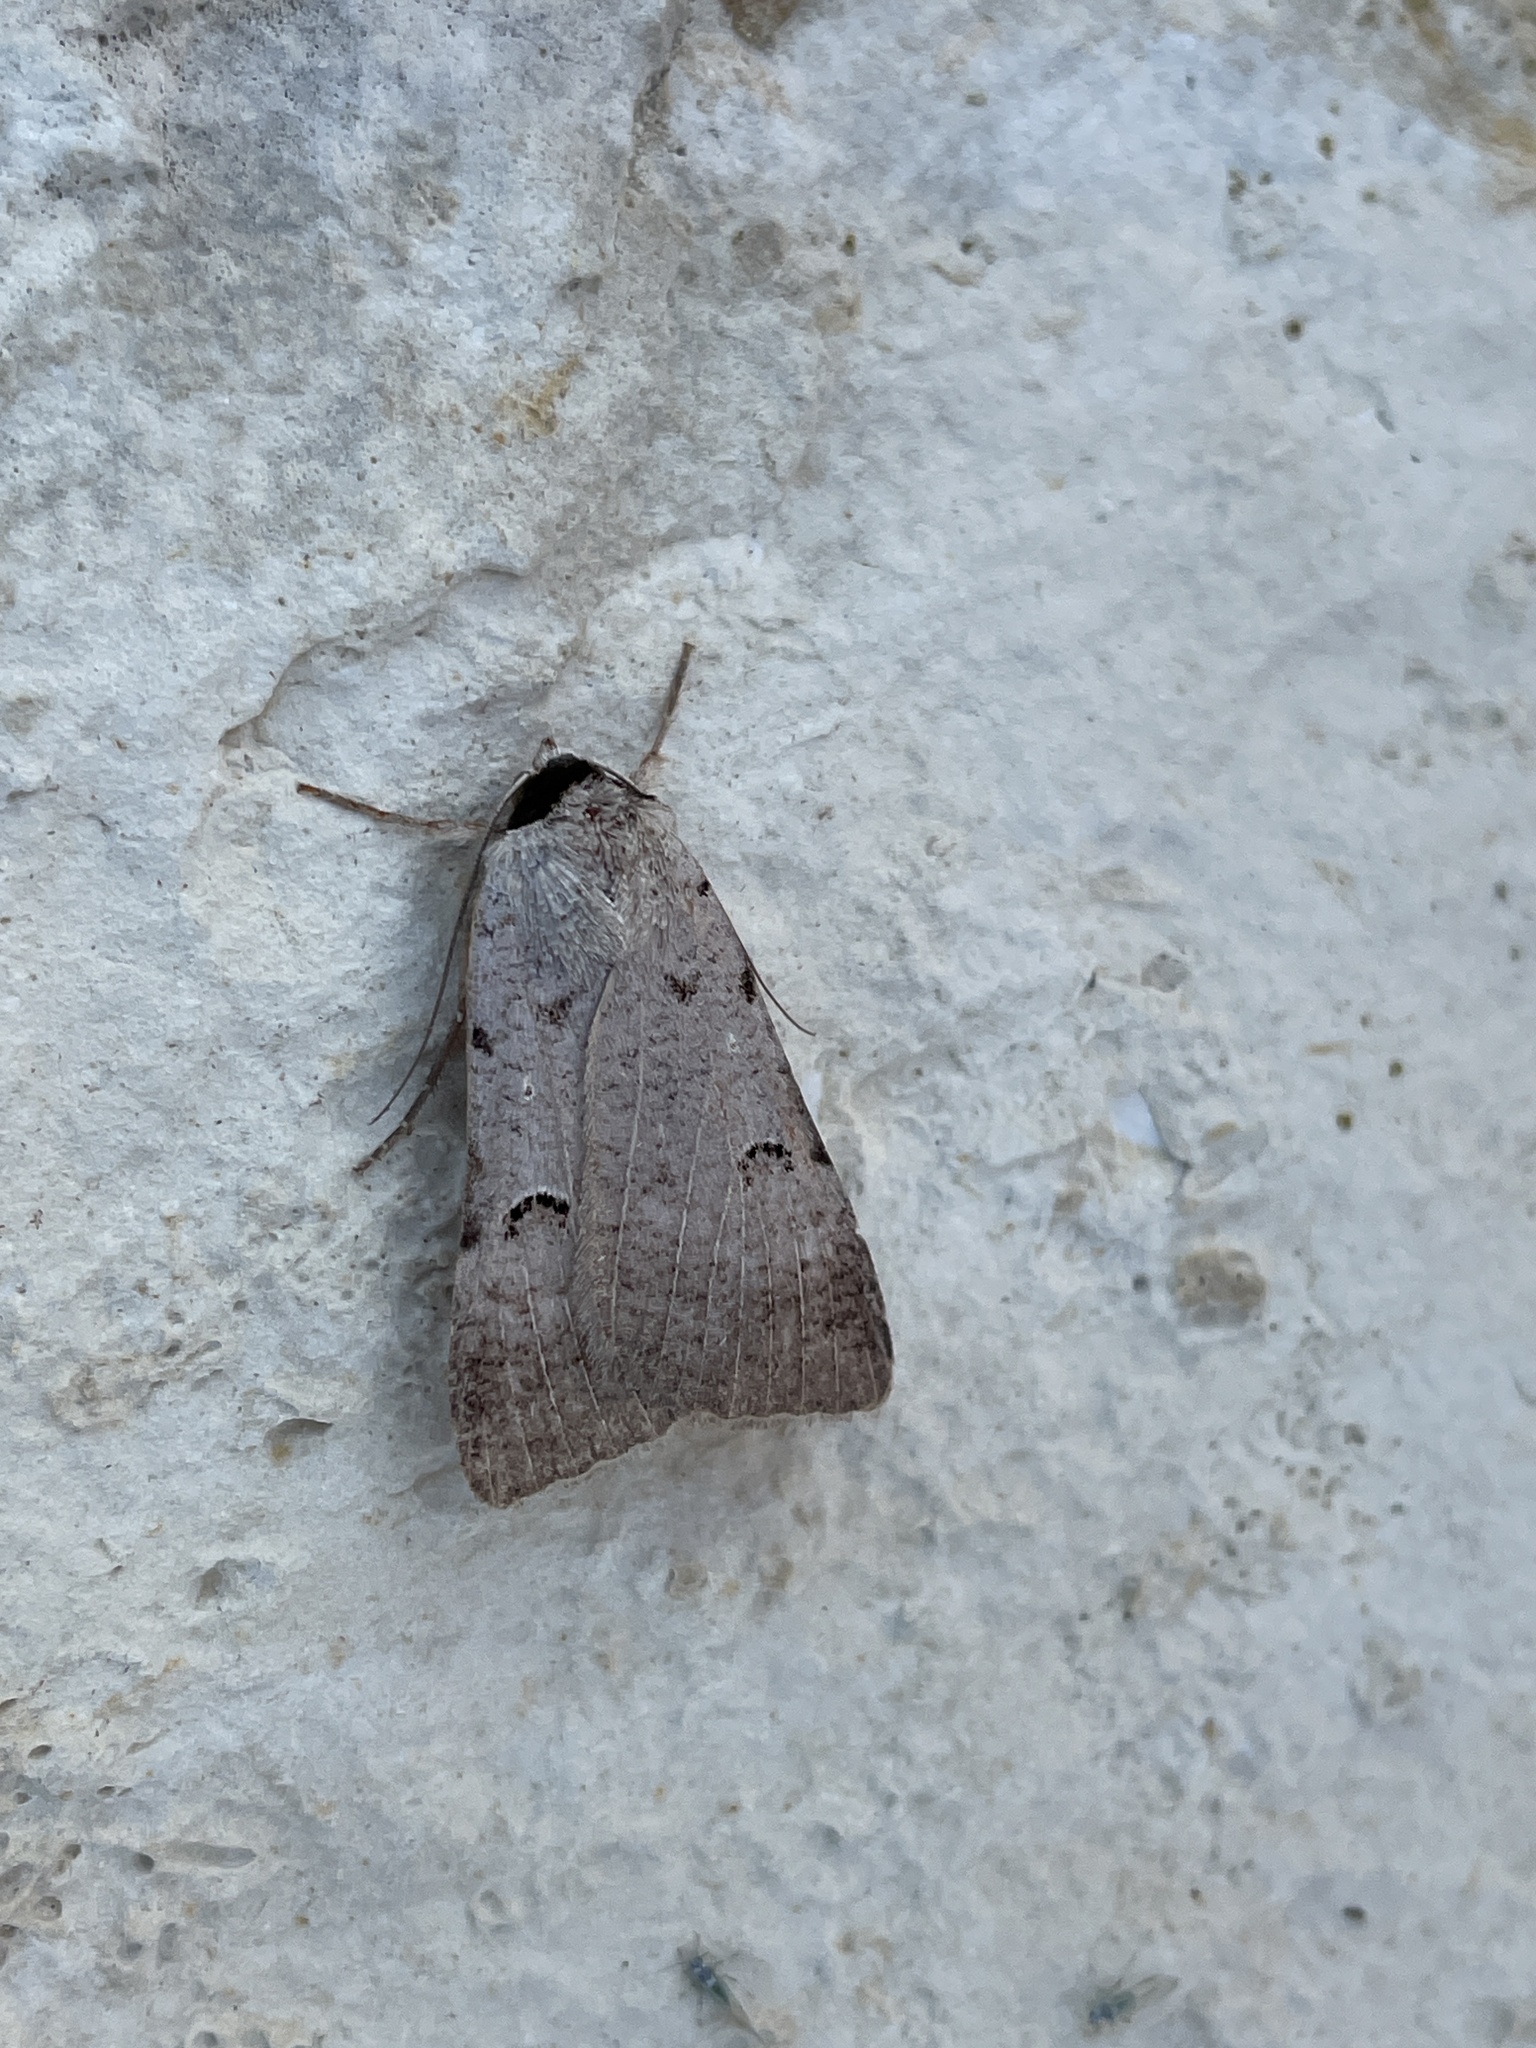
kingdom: Animalia
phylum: Arthropoda
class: Insecta
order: Lepidoptera
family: Erebidae
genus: Lygephila
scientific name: Lygephila craccae
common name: Scarce blackneck
